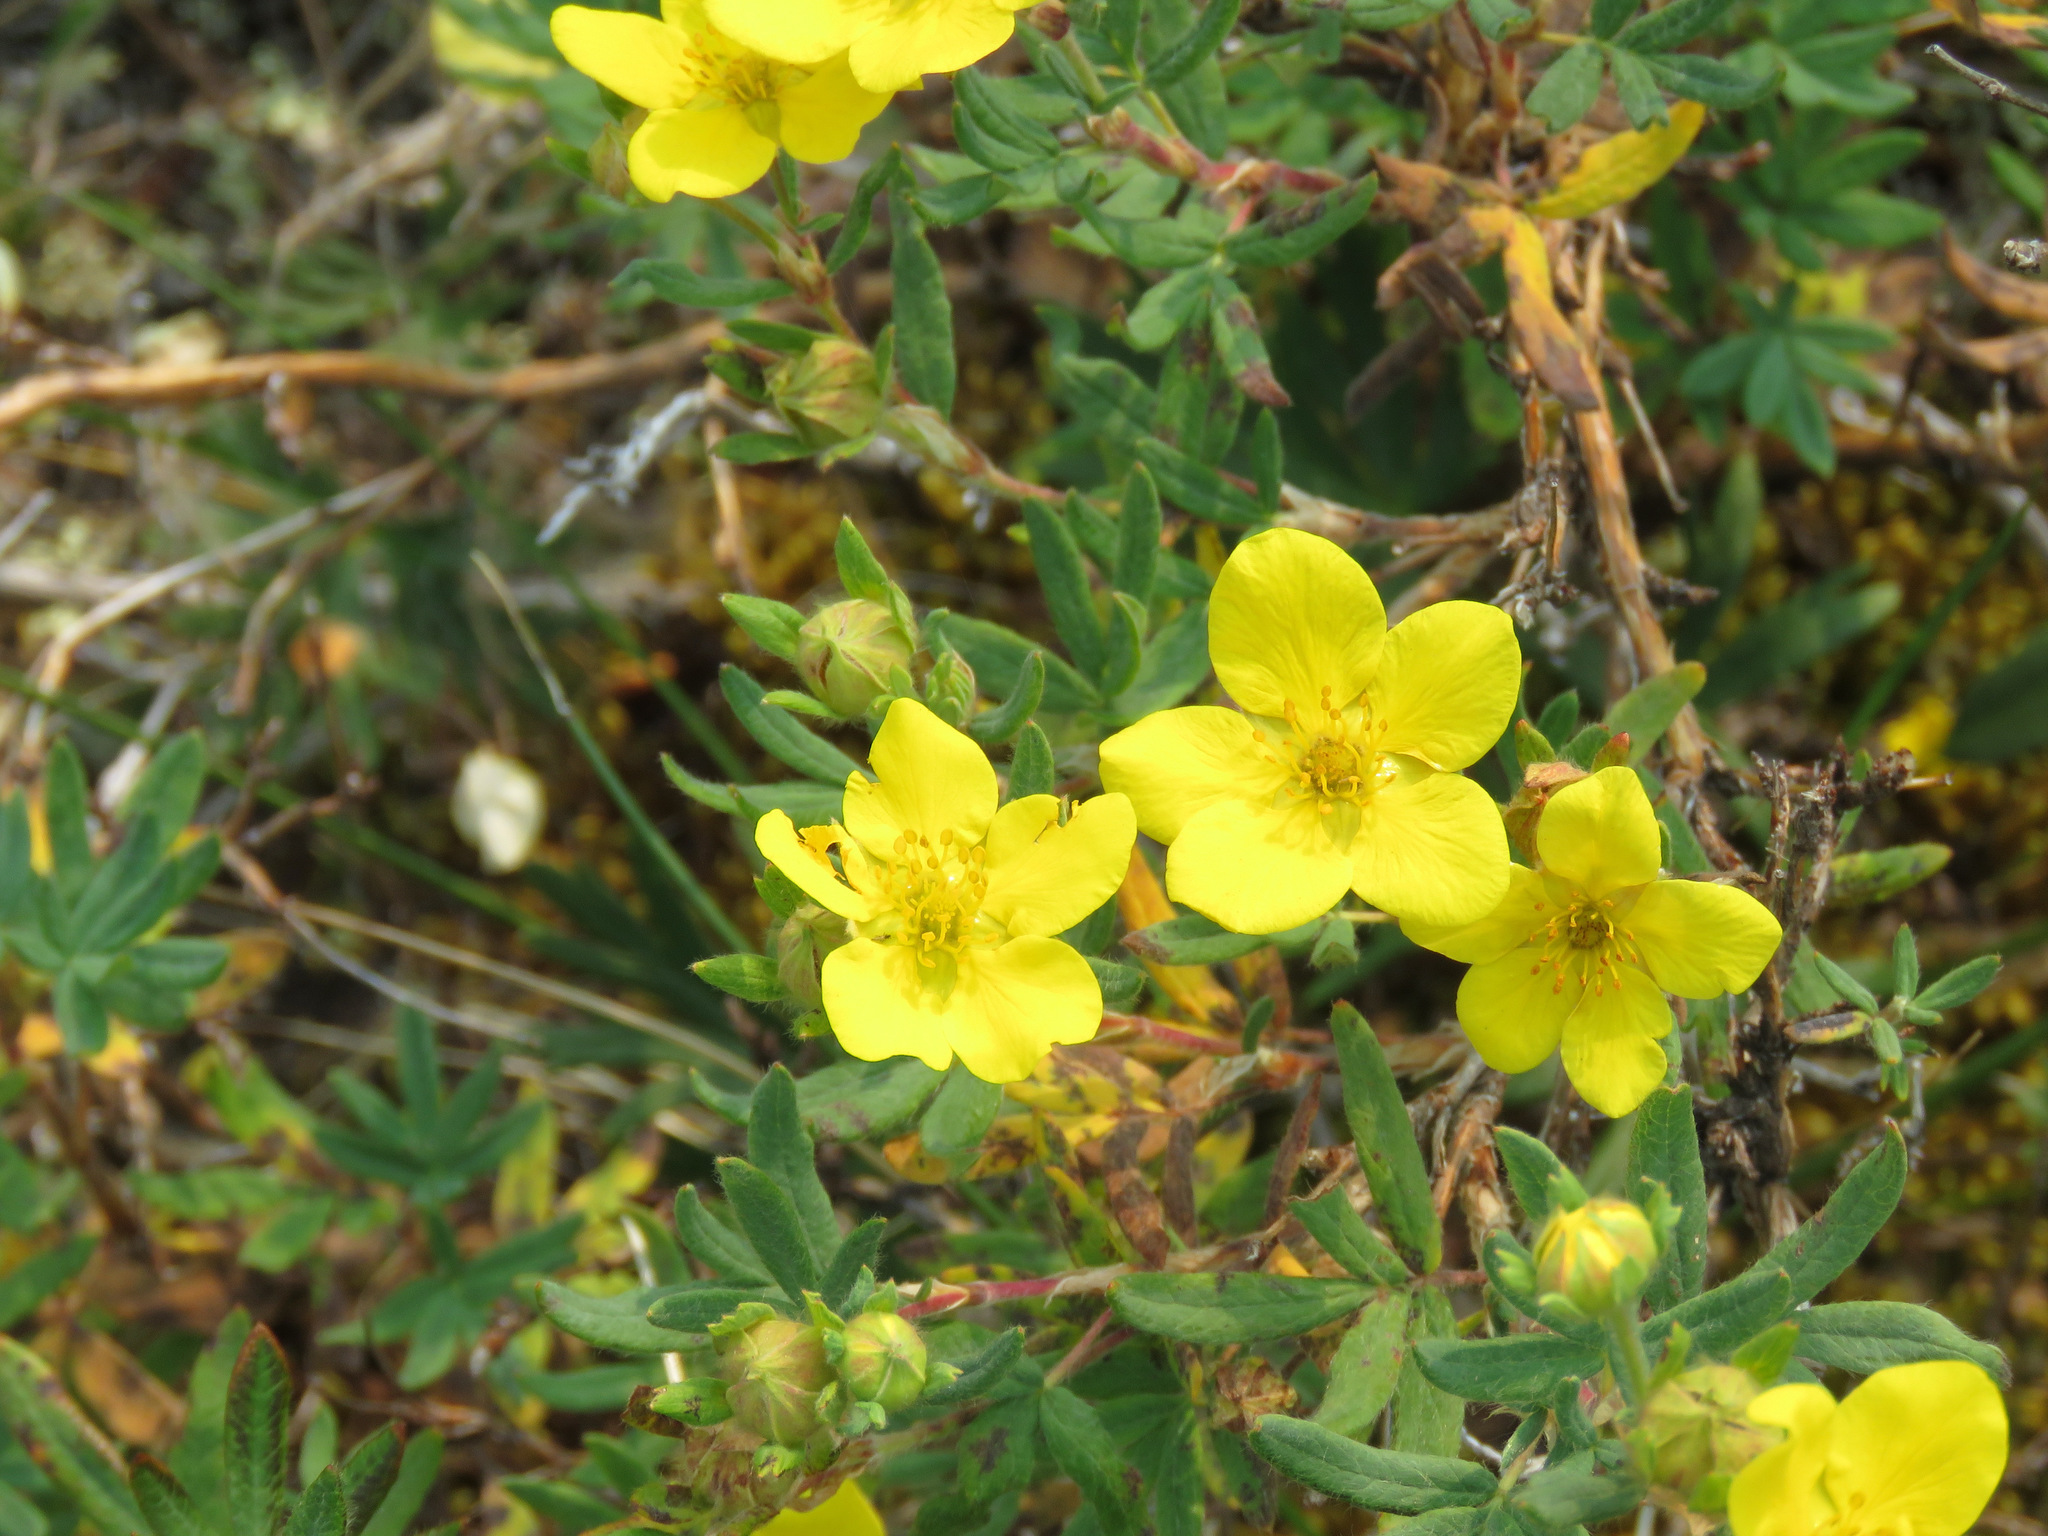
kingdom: Plantae
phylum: Tracheophyta
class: Magnoliopsida
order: Rosales
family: Rosaceae
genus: Dasiphora
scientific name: Dasiphora fruticosa
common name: Shrubby cinquefoil
